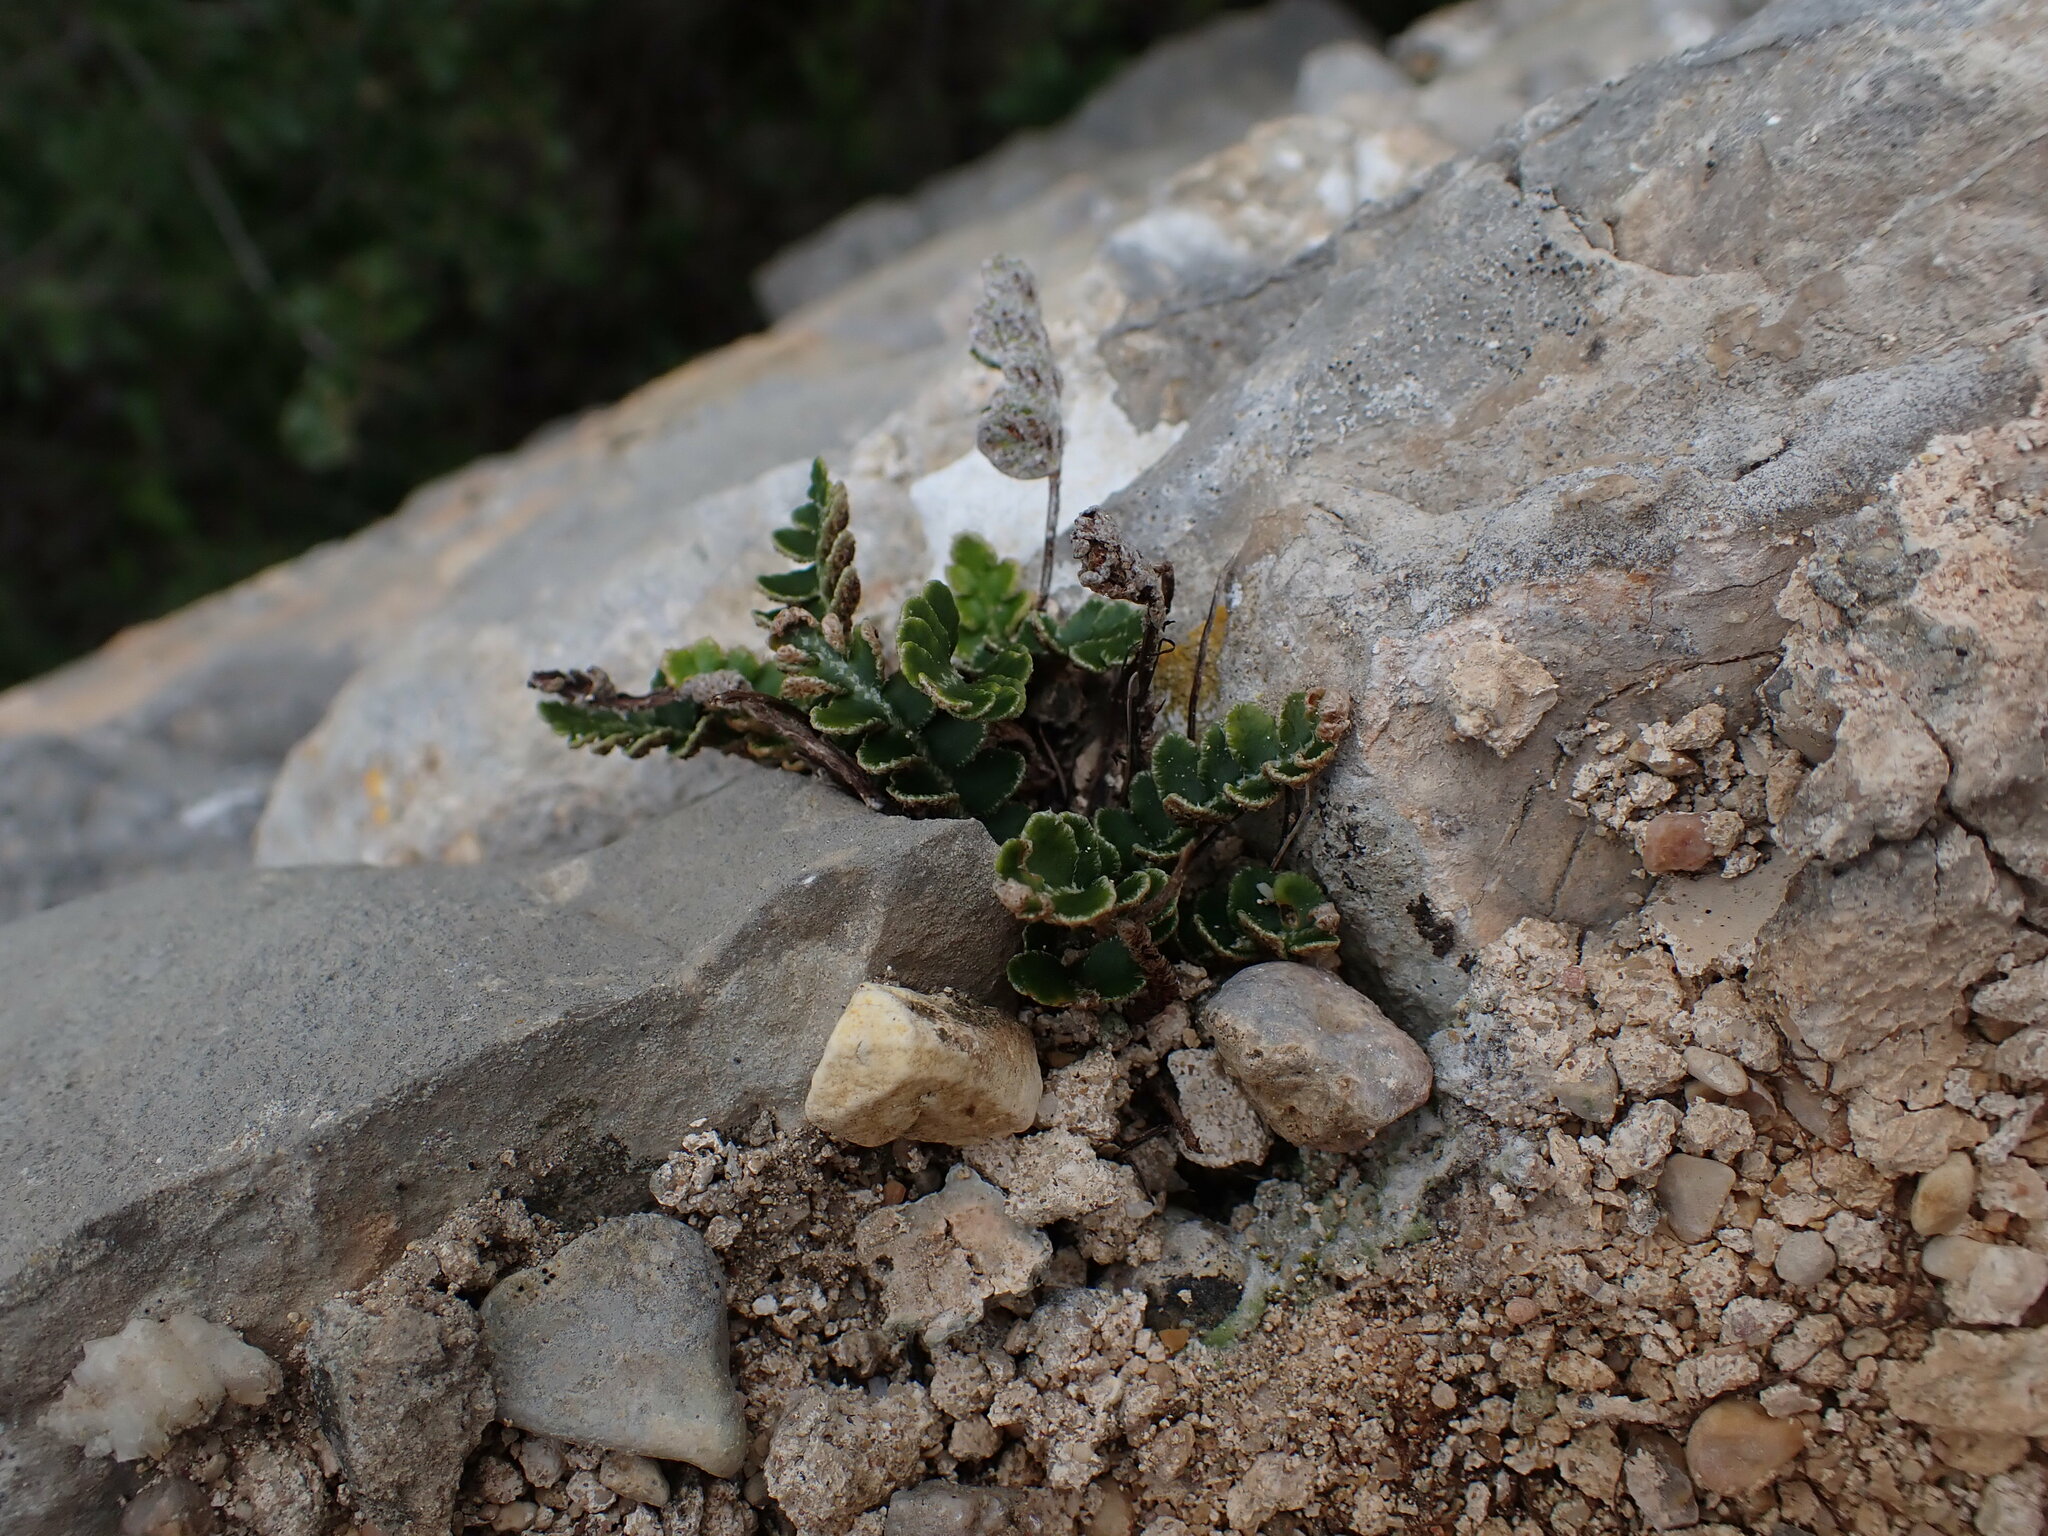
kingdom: Plantae
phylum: Tracheophyta
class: Polypodiopsida
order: Polypodiales
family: Aspleniaceae
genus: Asplenium
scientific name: Asplenium ceterach
